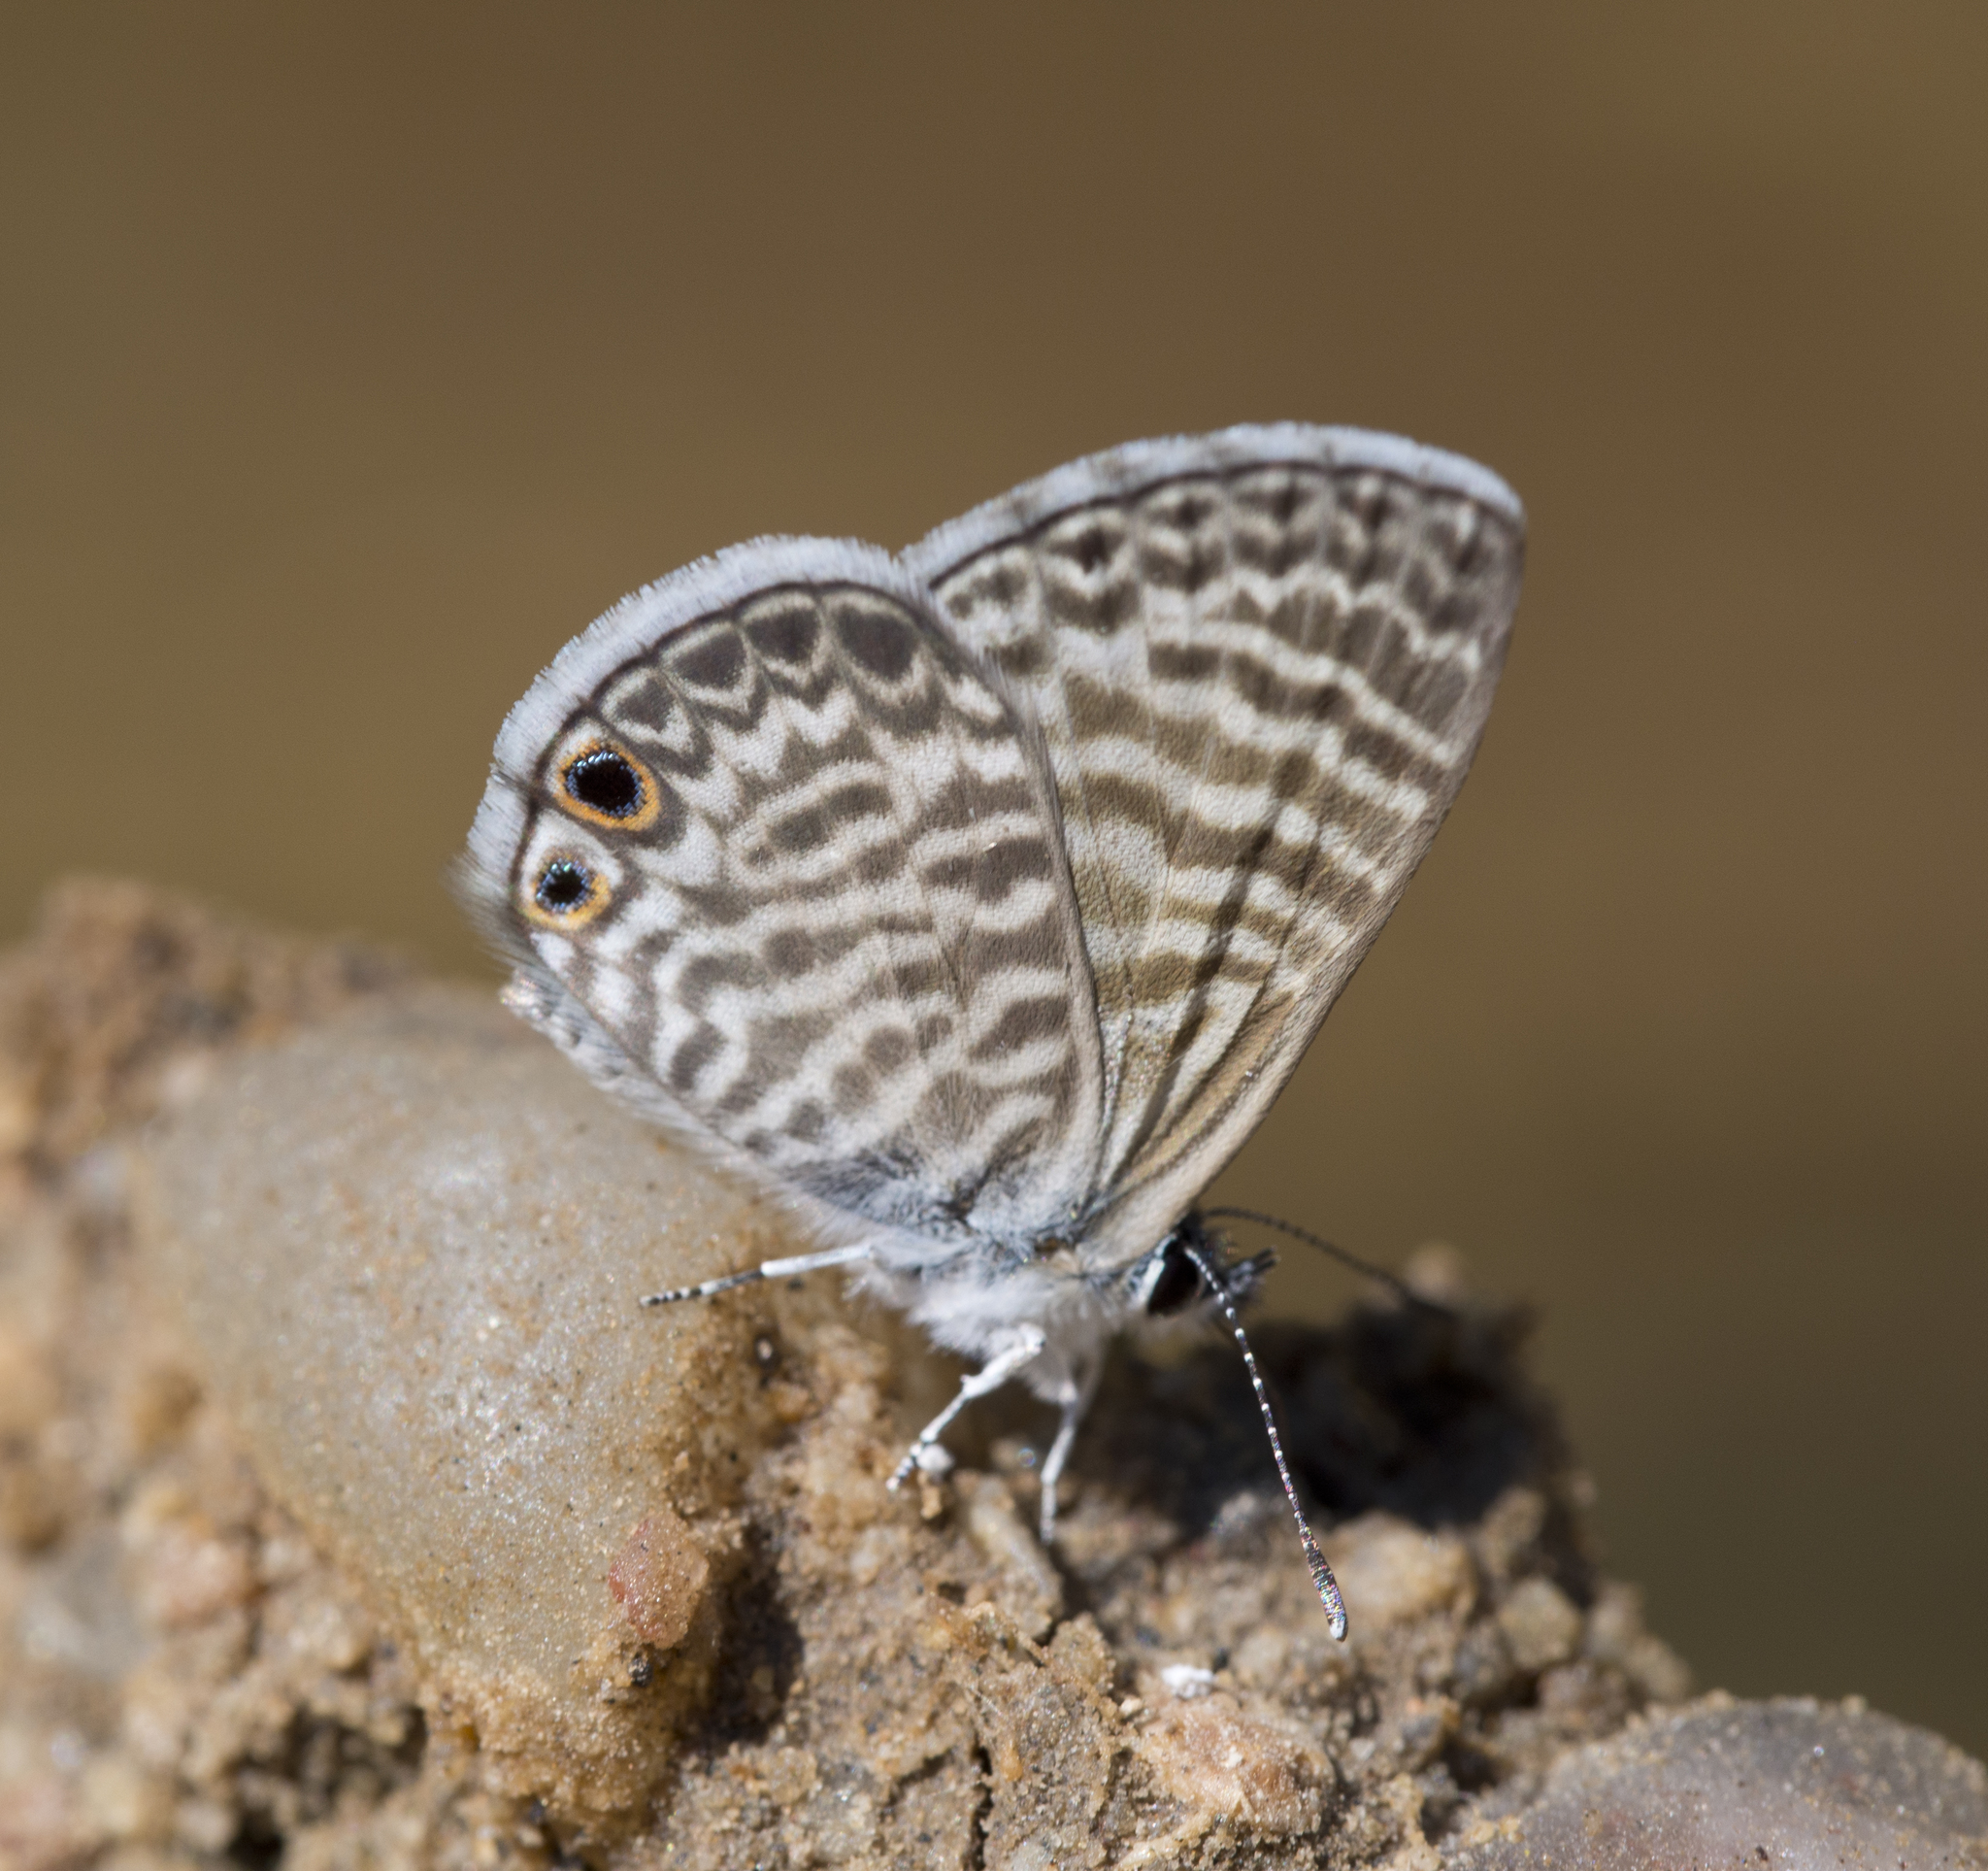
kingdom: Animalia
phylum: Arthropoda
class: Insecta
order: Lepidoptera
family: Lycaenidae
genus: Leptotes
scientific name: Leptotes marina
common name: Marine blue
